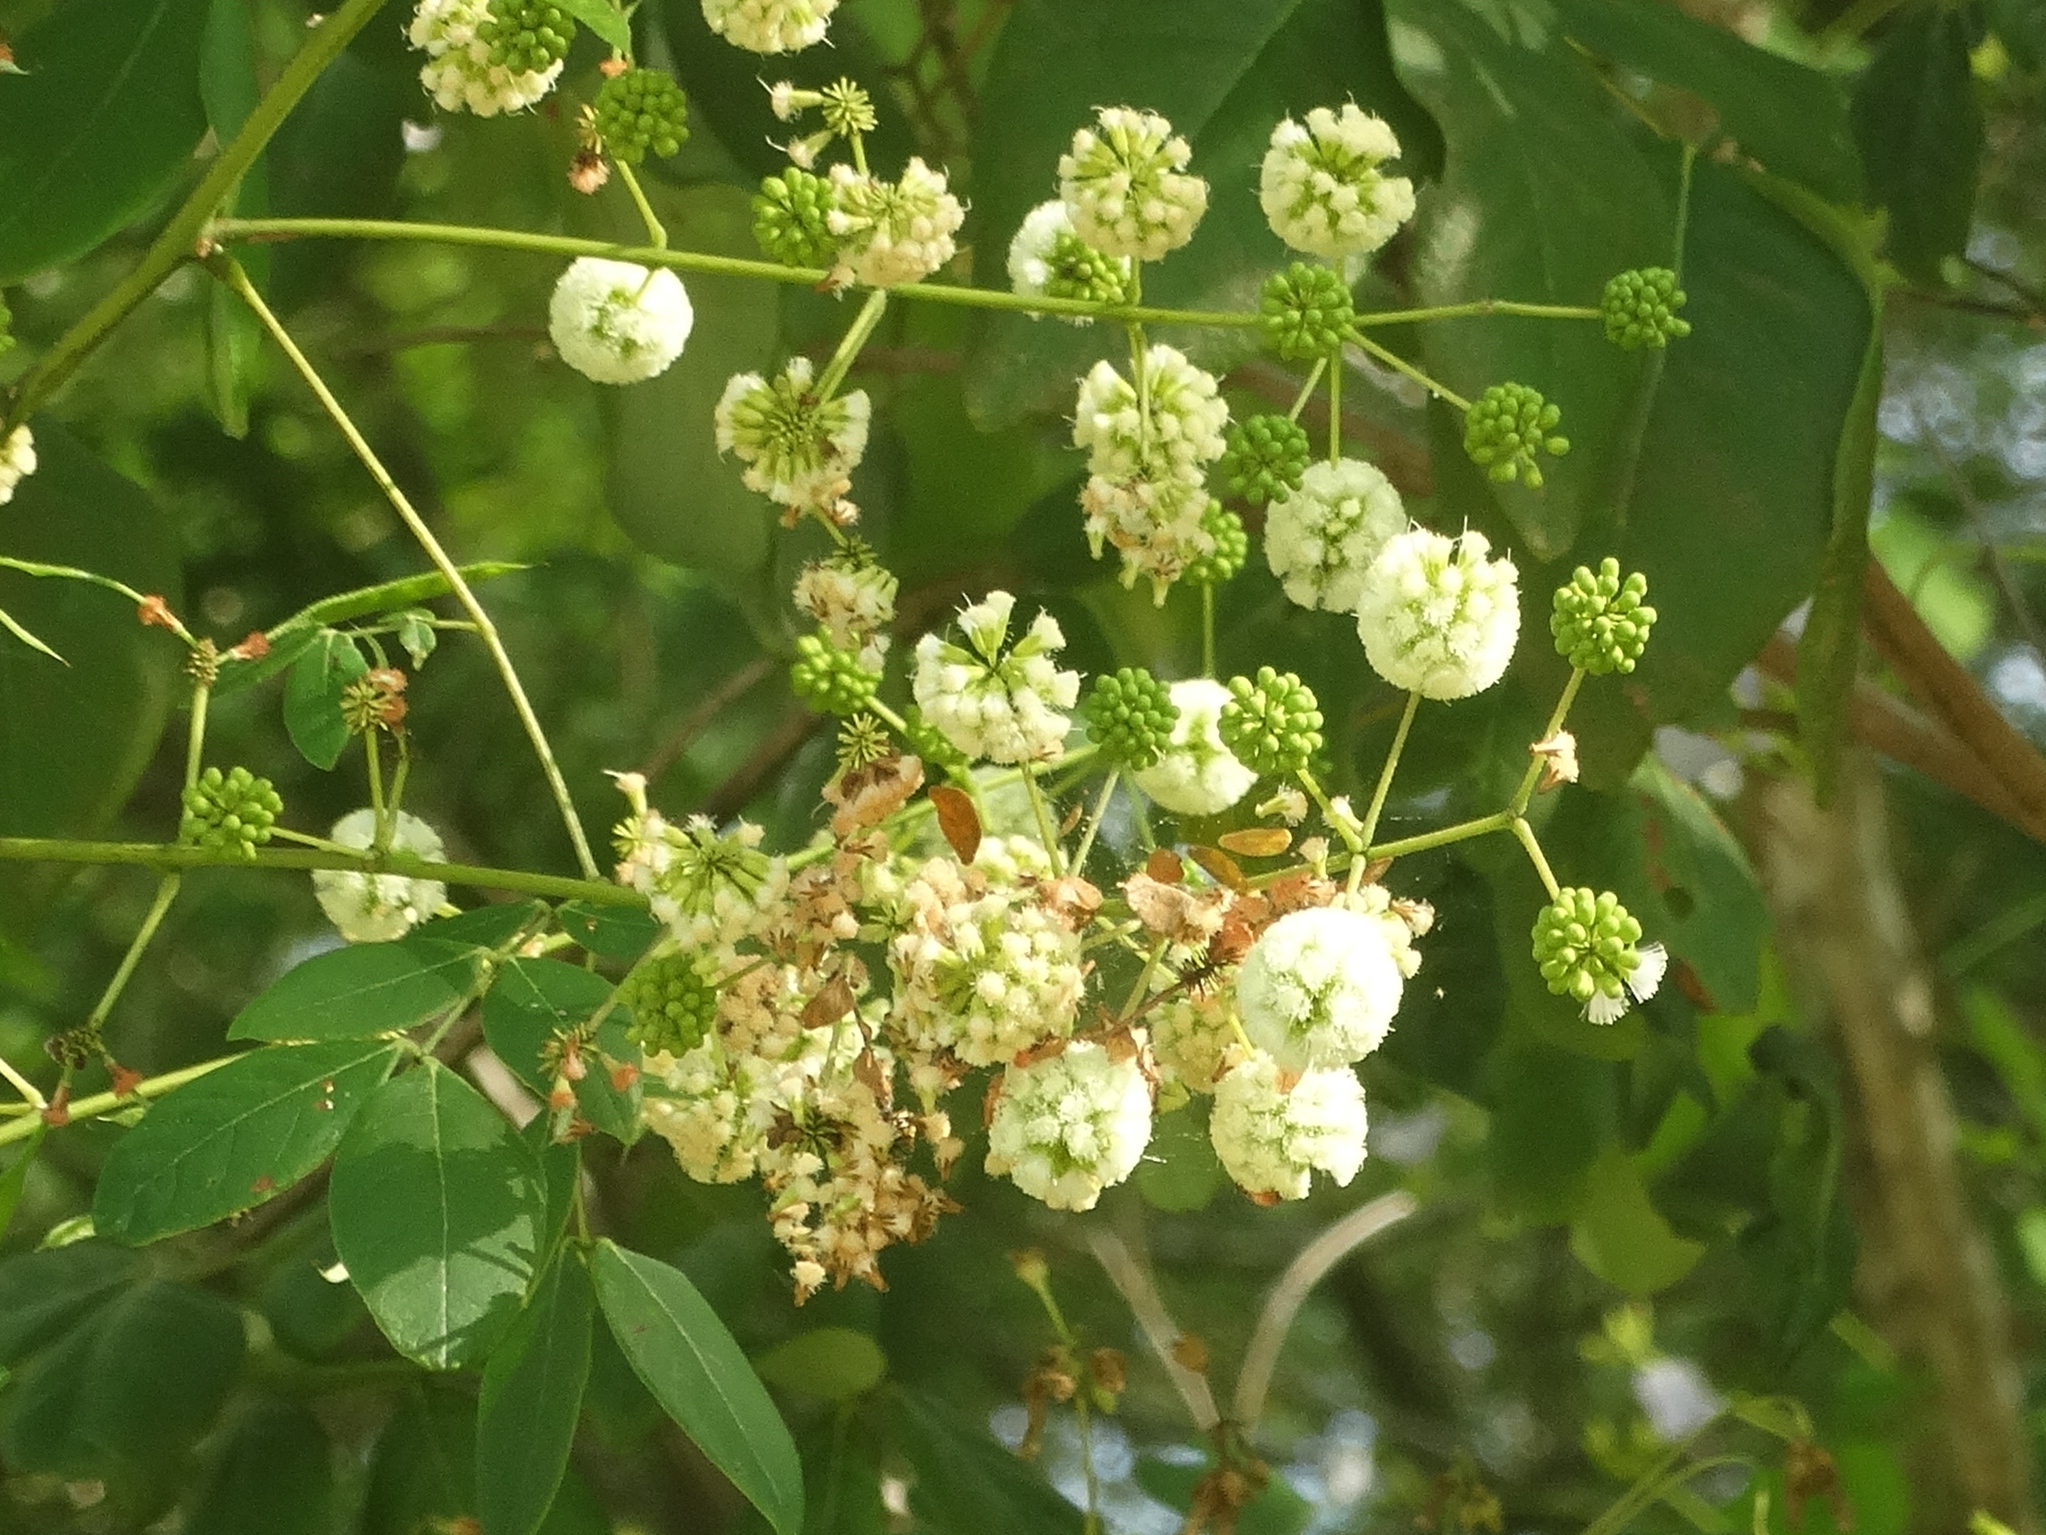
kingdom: Plantae
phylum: Tracheophyta
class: Magnoliopsida
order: Fabales
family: Fabaceae
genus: Pithecellobium
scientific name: Pithecellobium dulce
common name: Monkeypod
